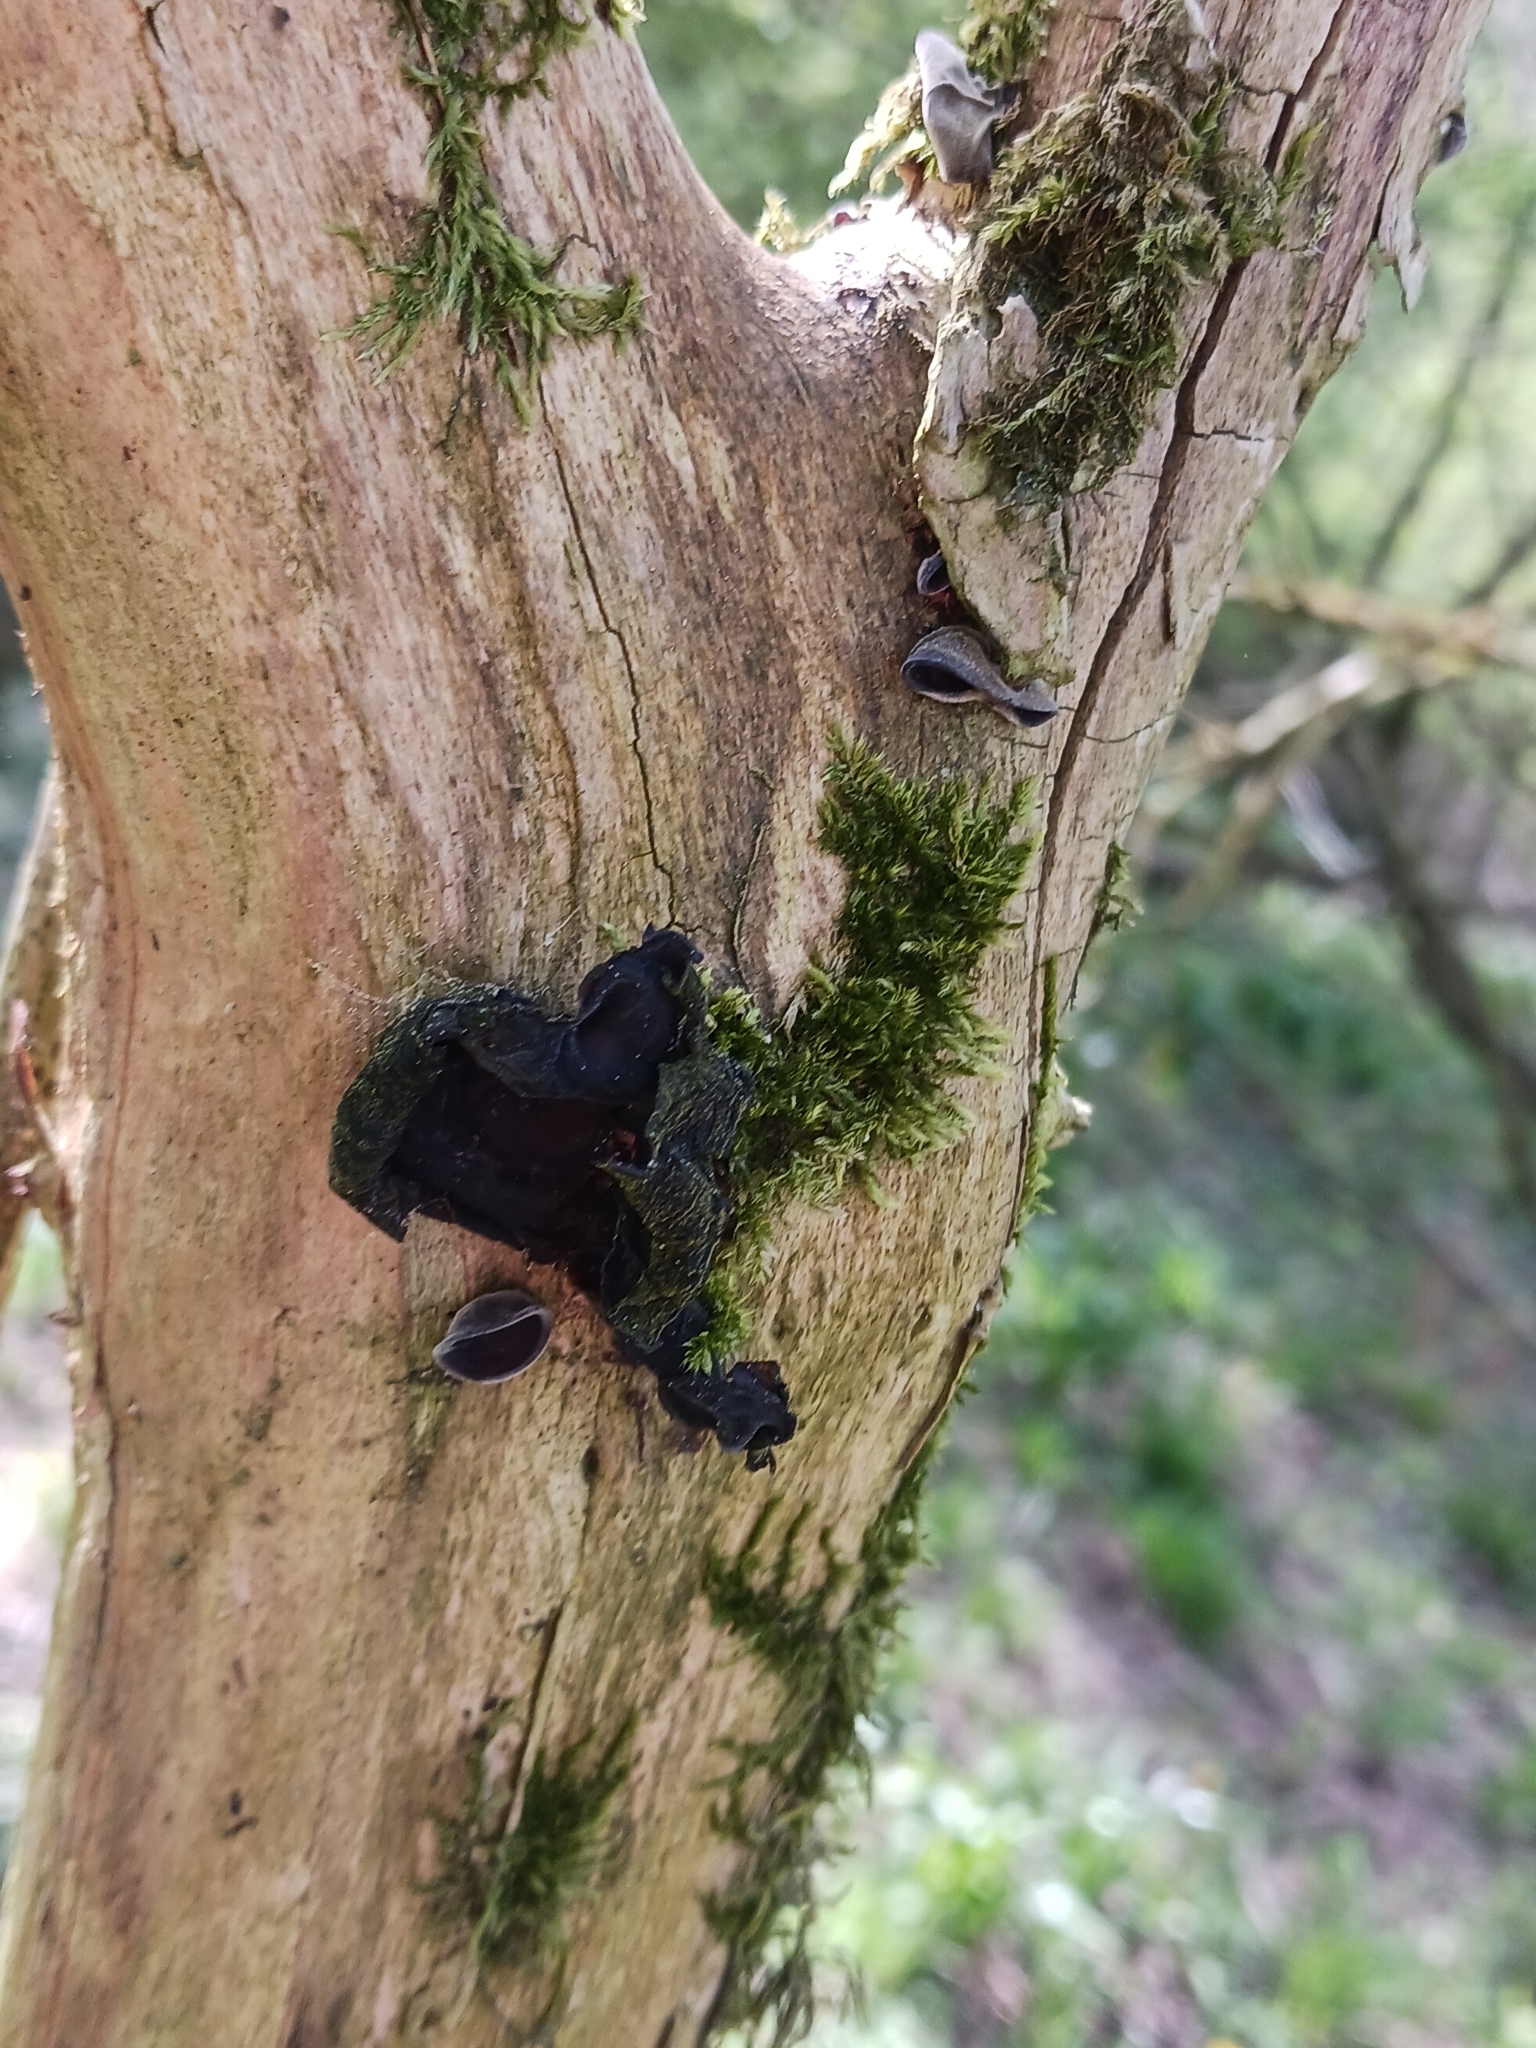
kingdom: Fungi
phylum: Basidiomycota
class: Agaricomycetes
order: Auriculariales
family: Auriculariaceae
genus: Auricularia
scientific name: Auricularia auricula-judae
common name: Jelly ear
